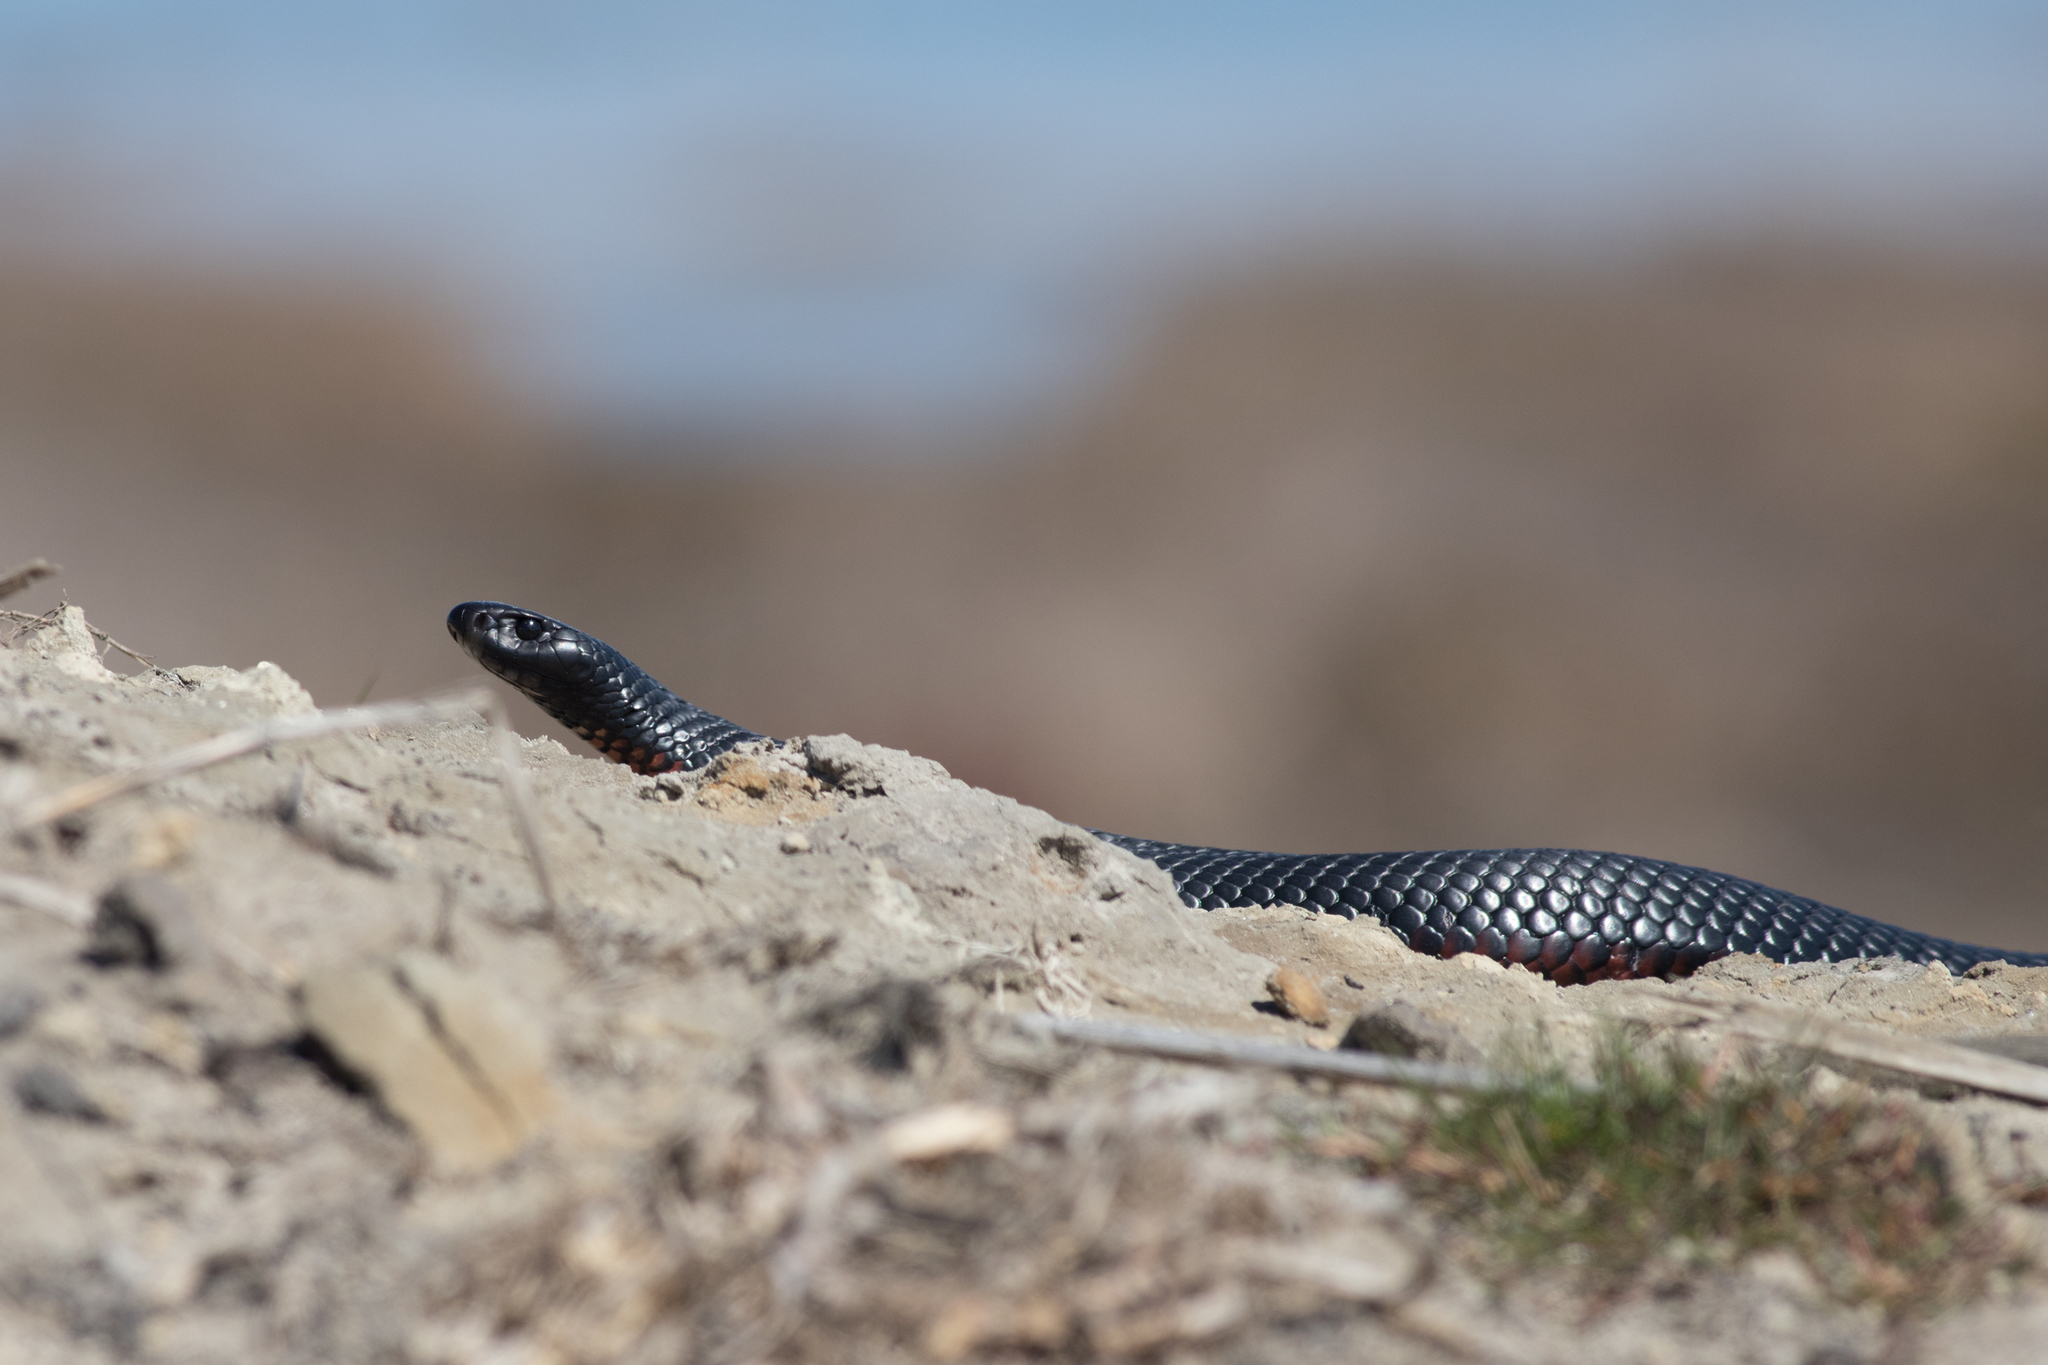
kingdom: Animalia
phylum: Chordata
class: Squamata
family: Elapidae
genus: Pseudechis
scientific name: Pseudechis porphyriacus
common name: Australian black snake
